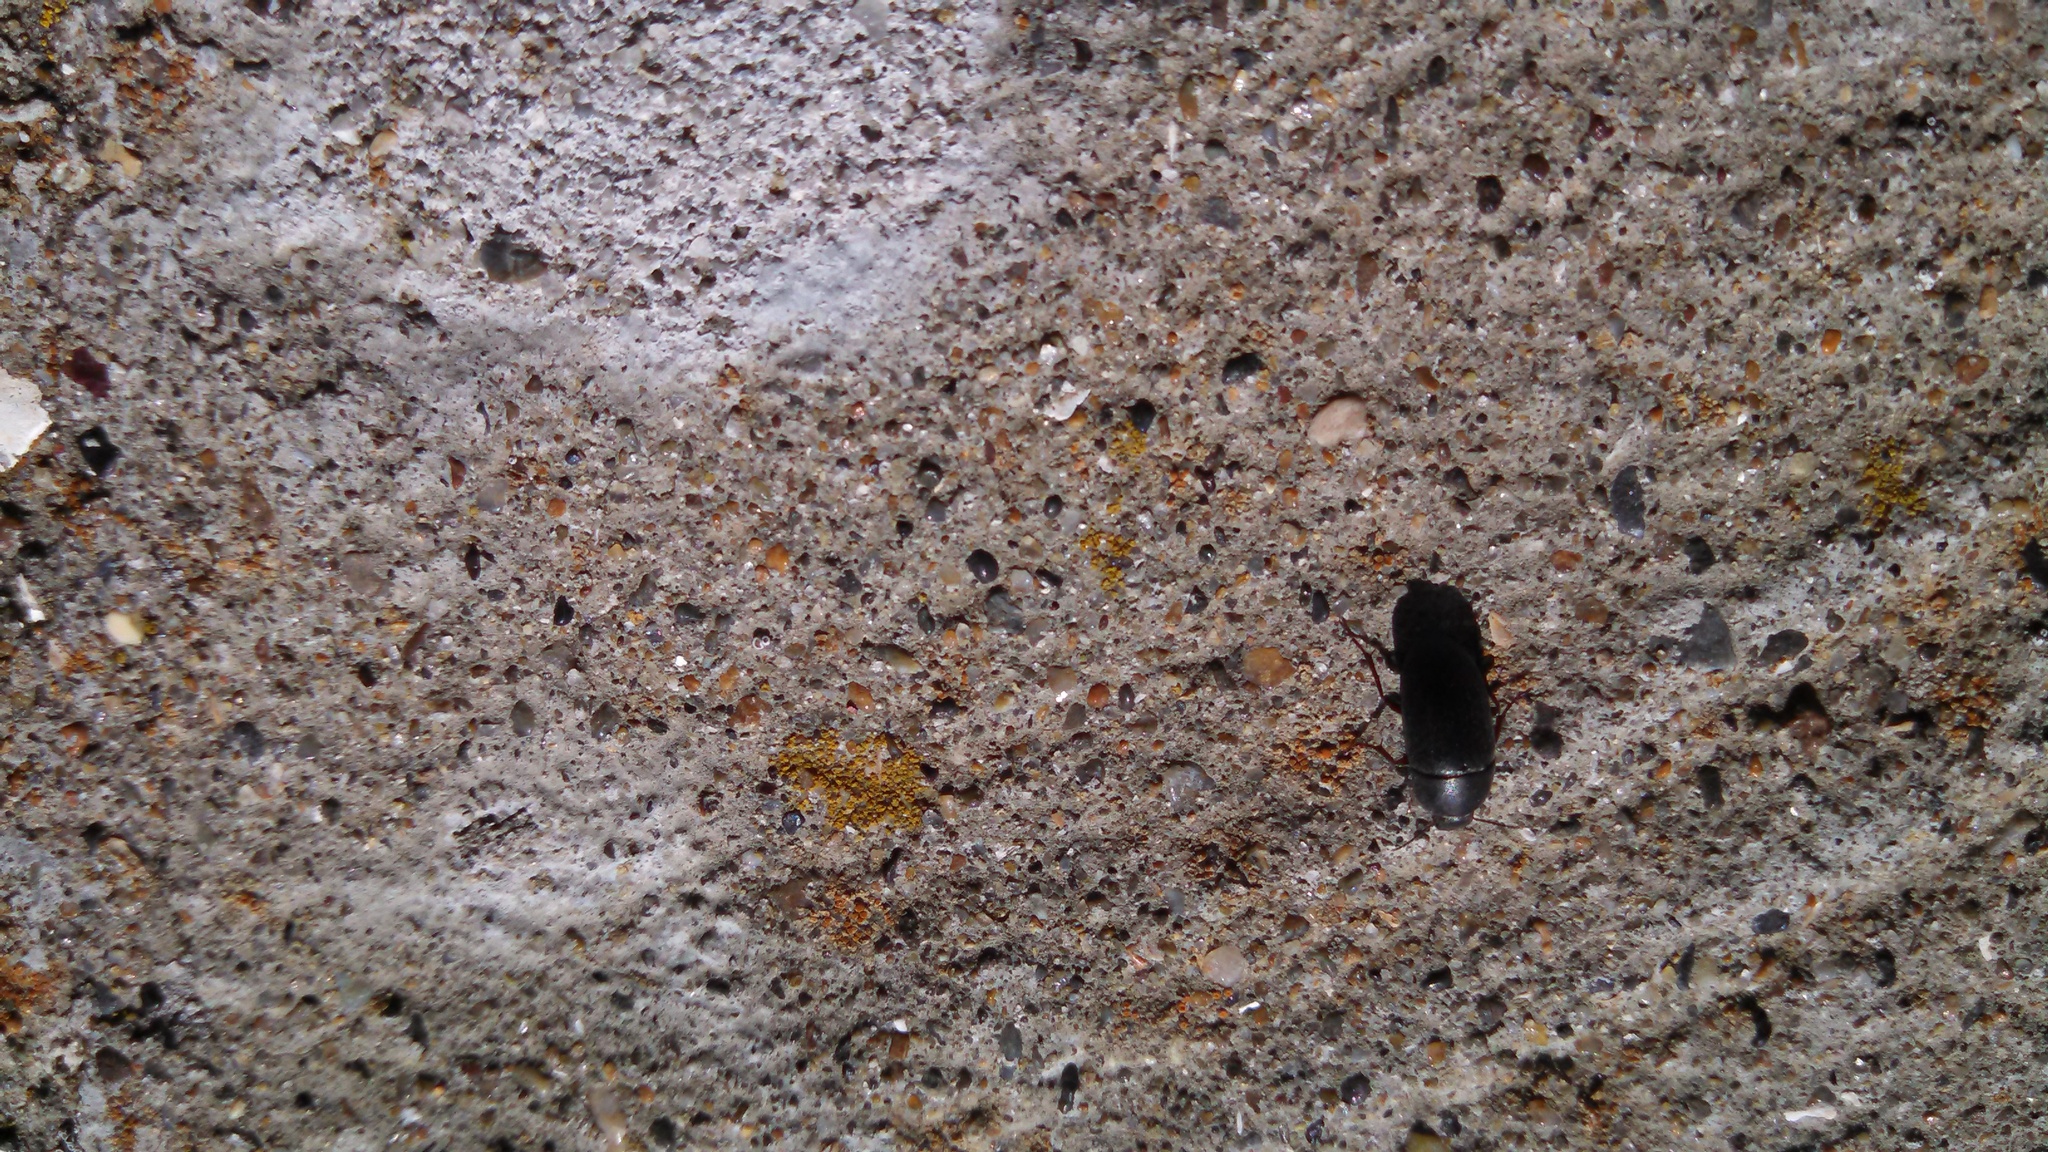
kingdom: Animalia
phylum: Arthropoda
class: Insecta
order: Coleoptera
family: Tenebrionidae
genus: Coniontis
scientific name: Coniontis
